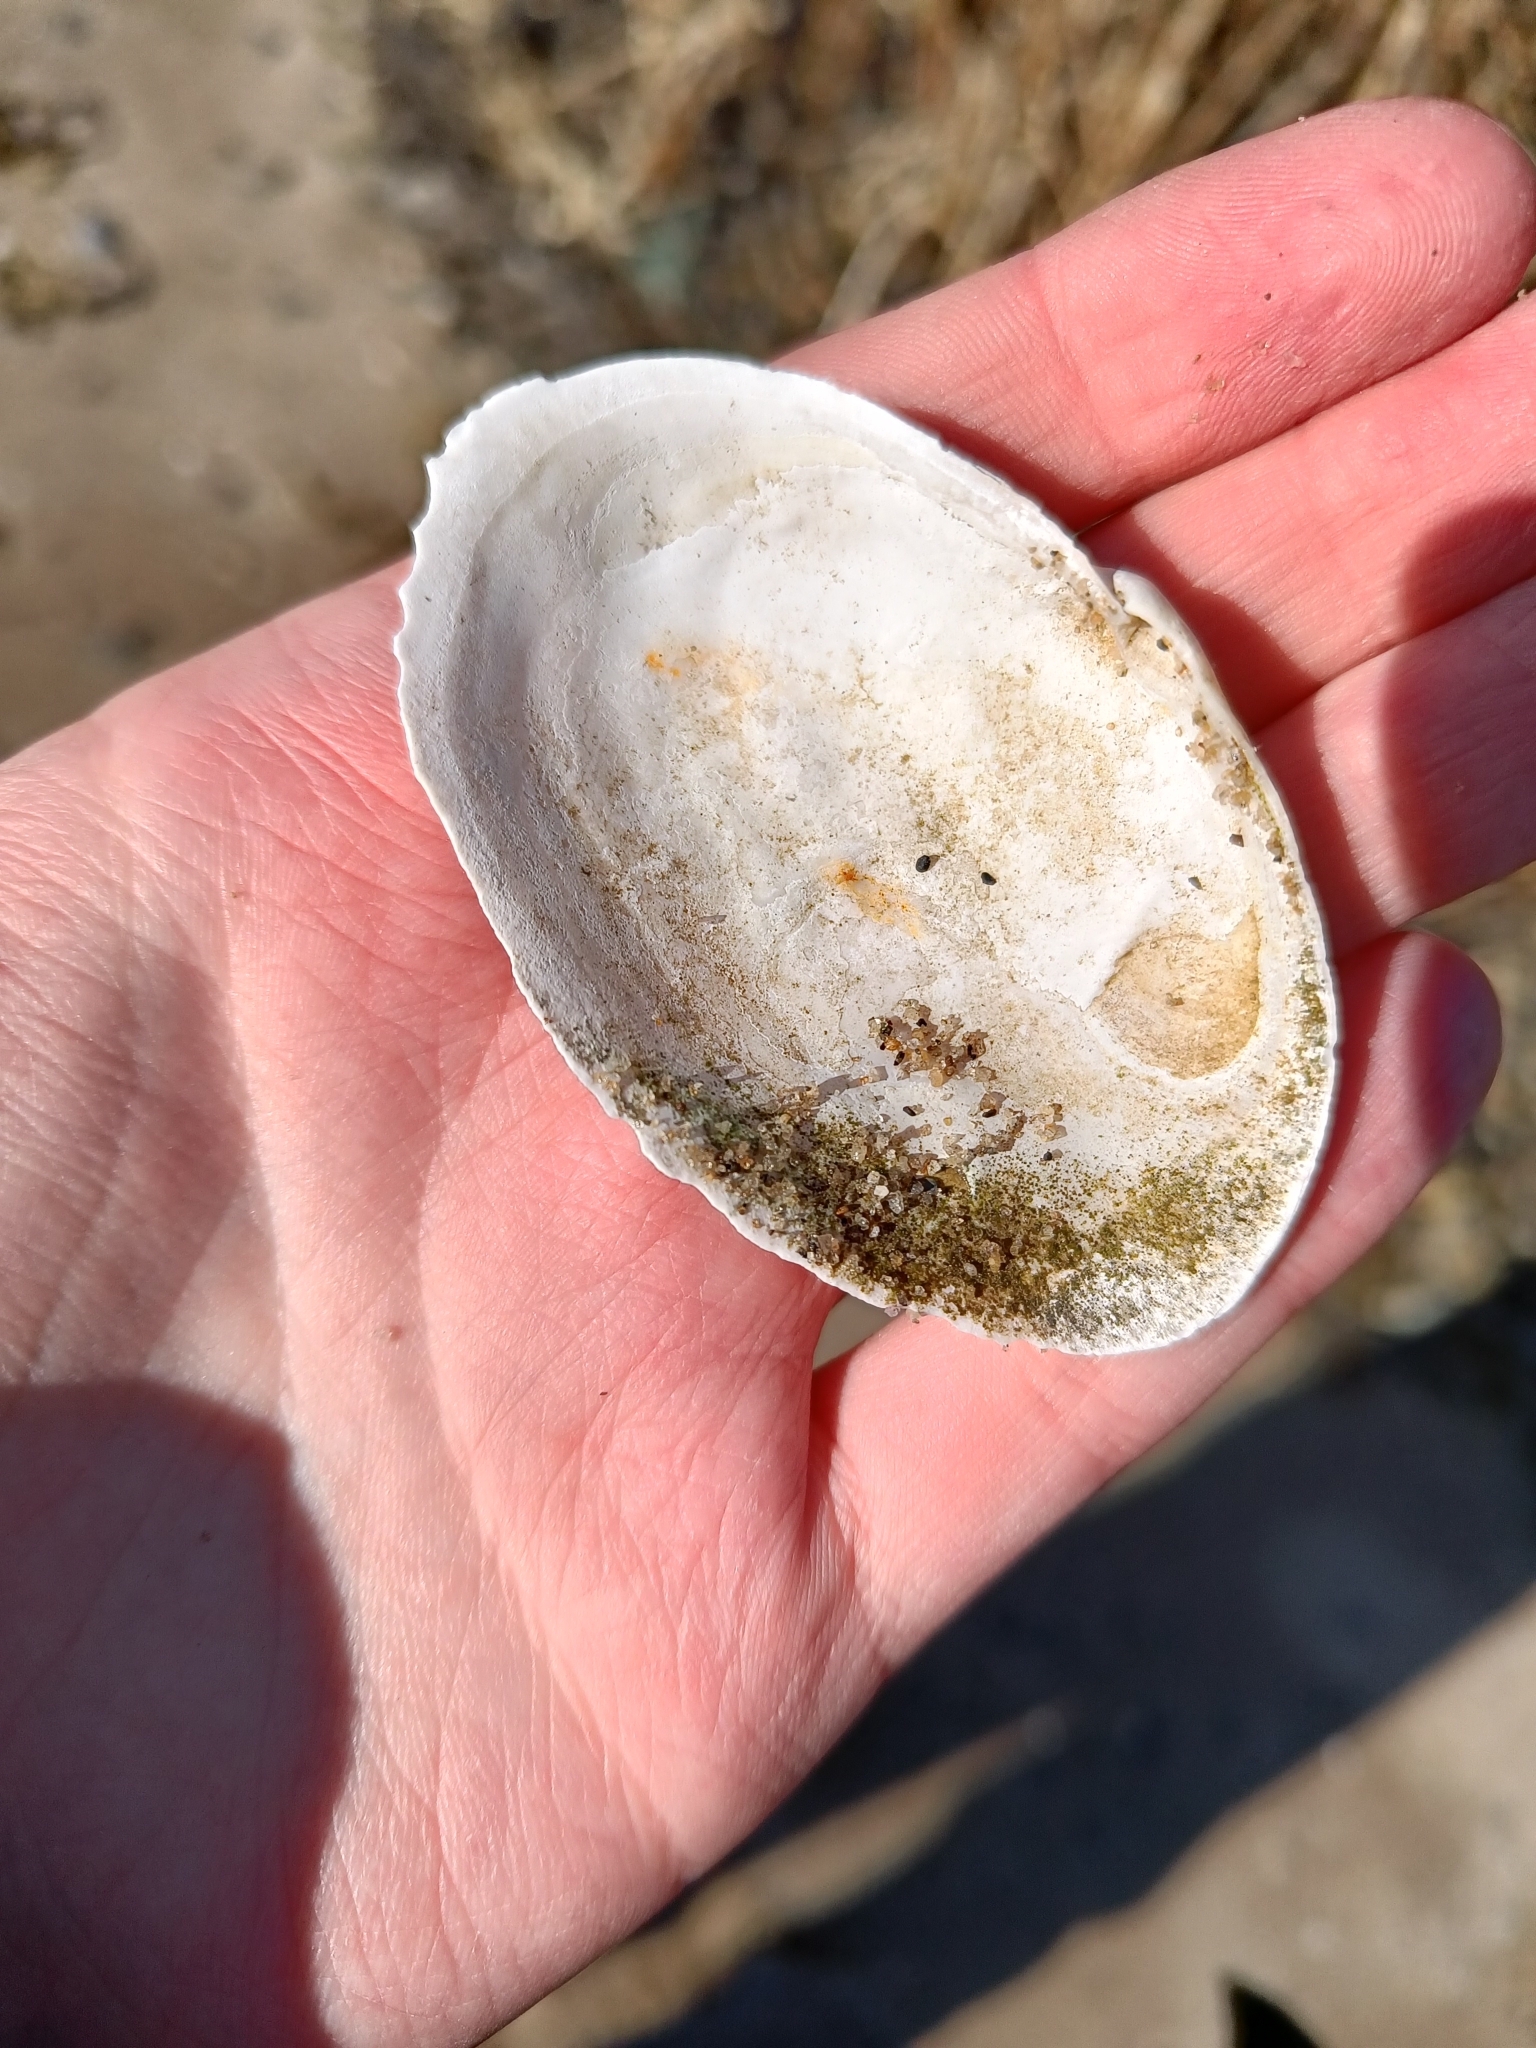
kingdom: Animalia
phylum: Mollusca
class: Bivalvia
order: Myida
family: Myidae
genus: Mya
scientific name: Mya arenaria
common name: Soft-shelled clam
